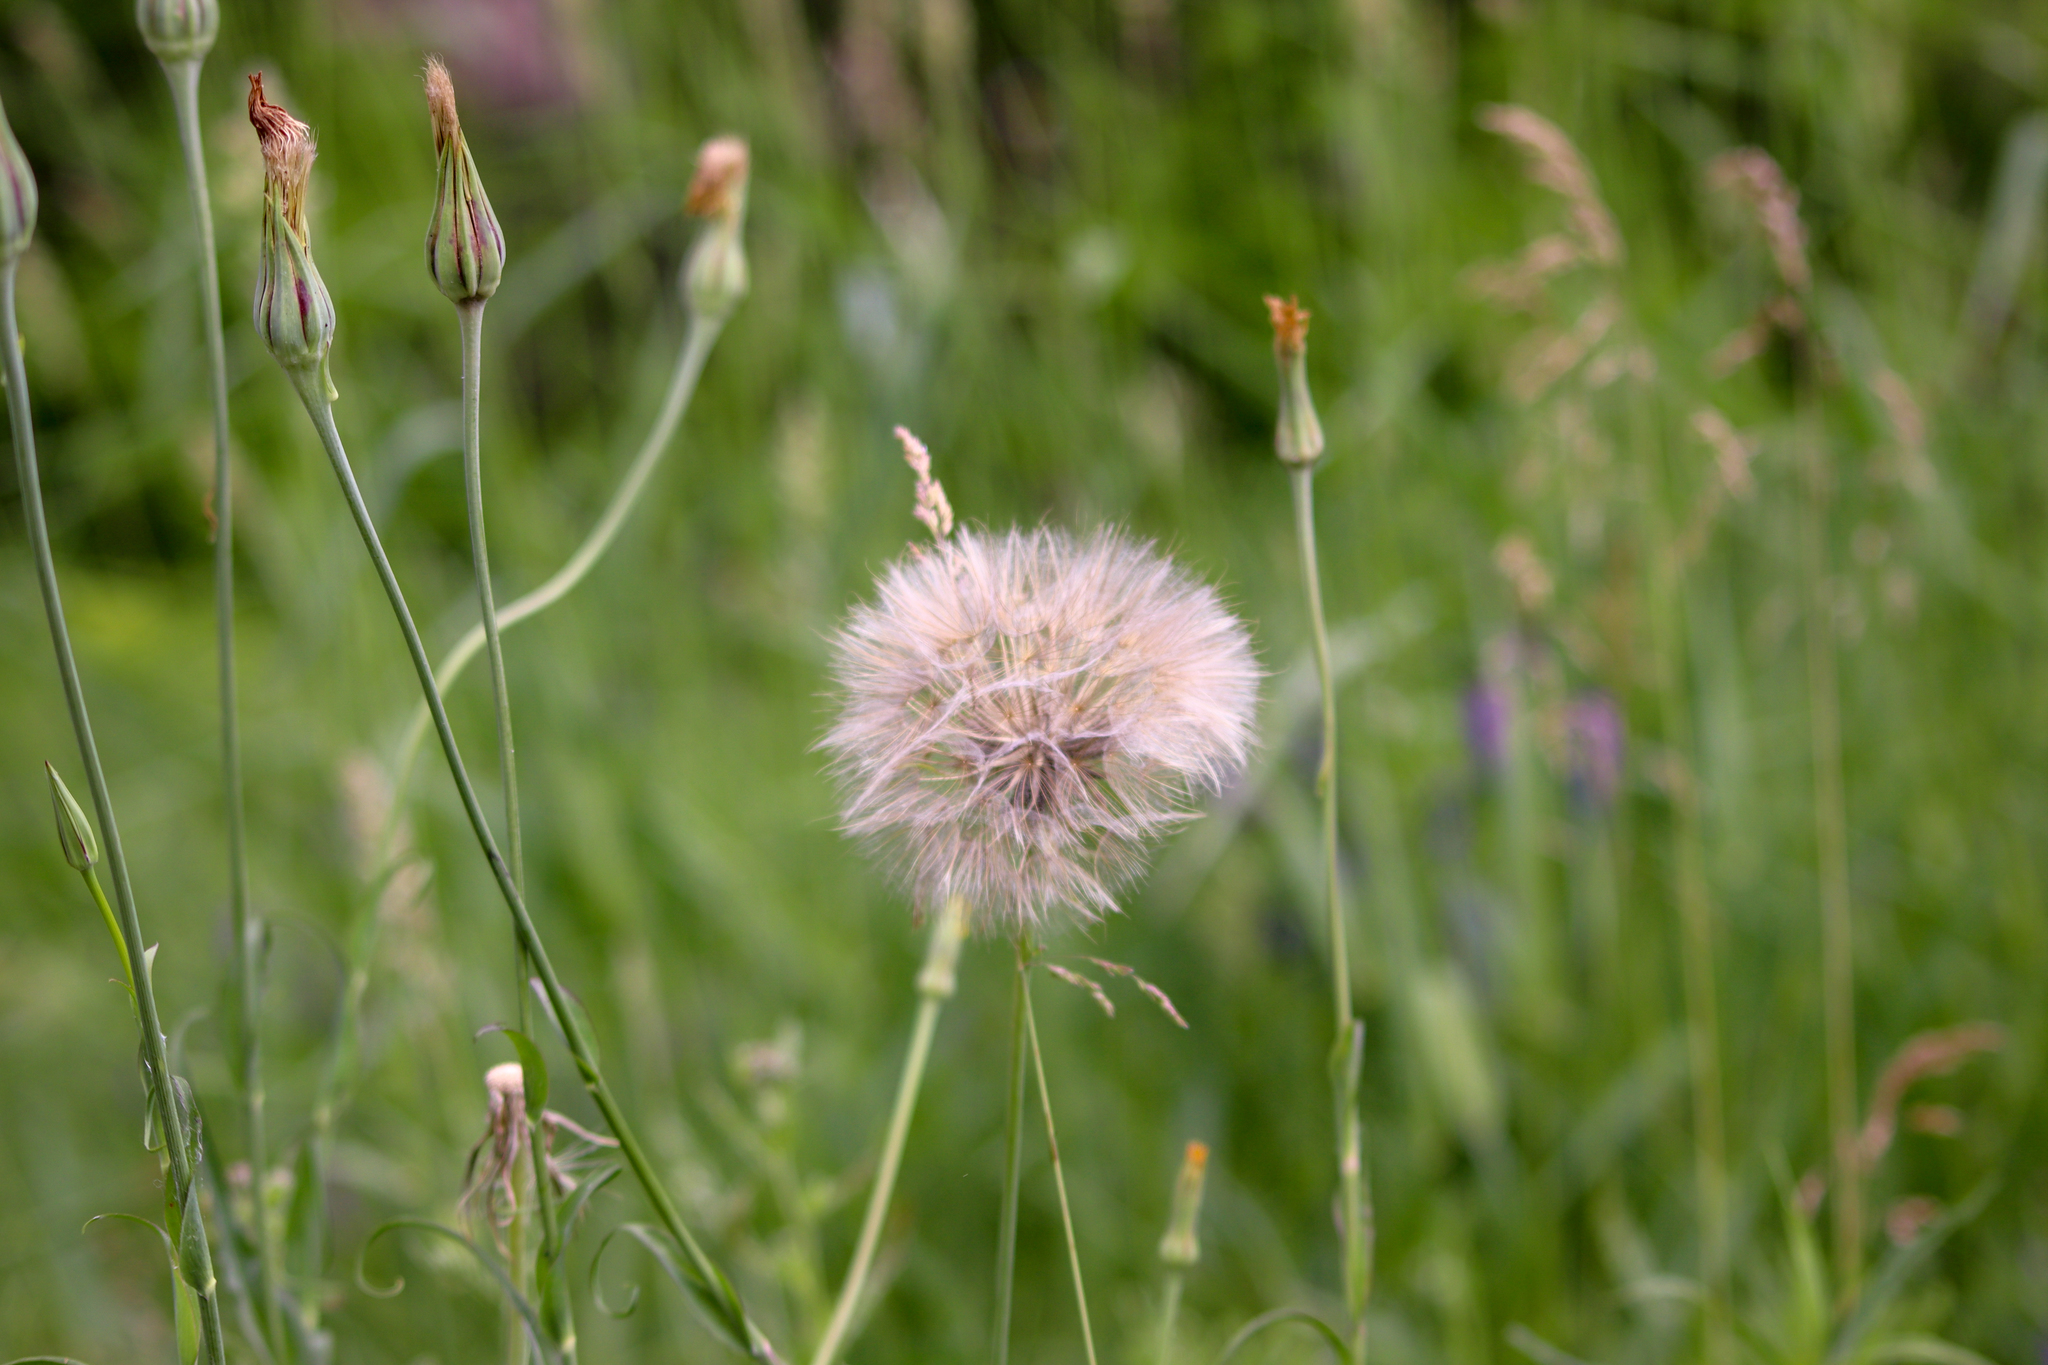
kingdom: Plantae
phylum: Tracheophyta
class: Magnoliopsida
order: Asterales
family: Asteraceae
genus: Tragopogon
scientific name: Tragopogon pratensis
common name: Goat's-beard
